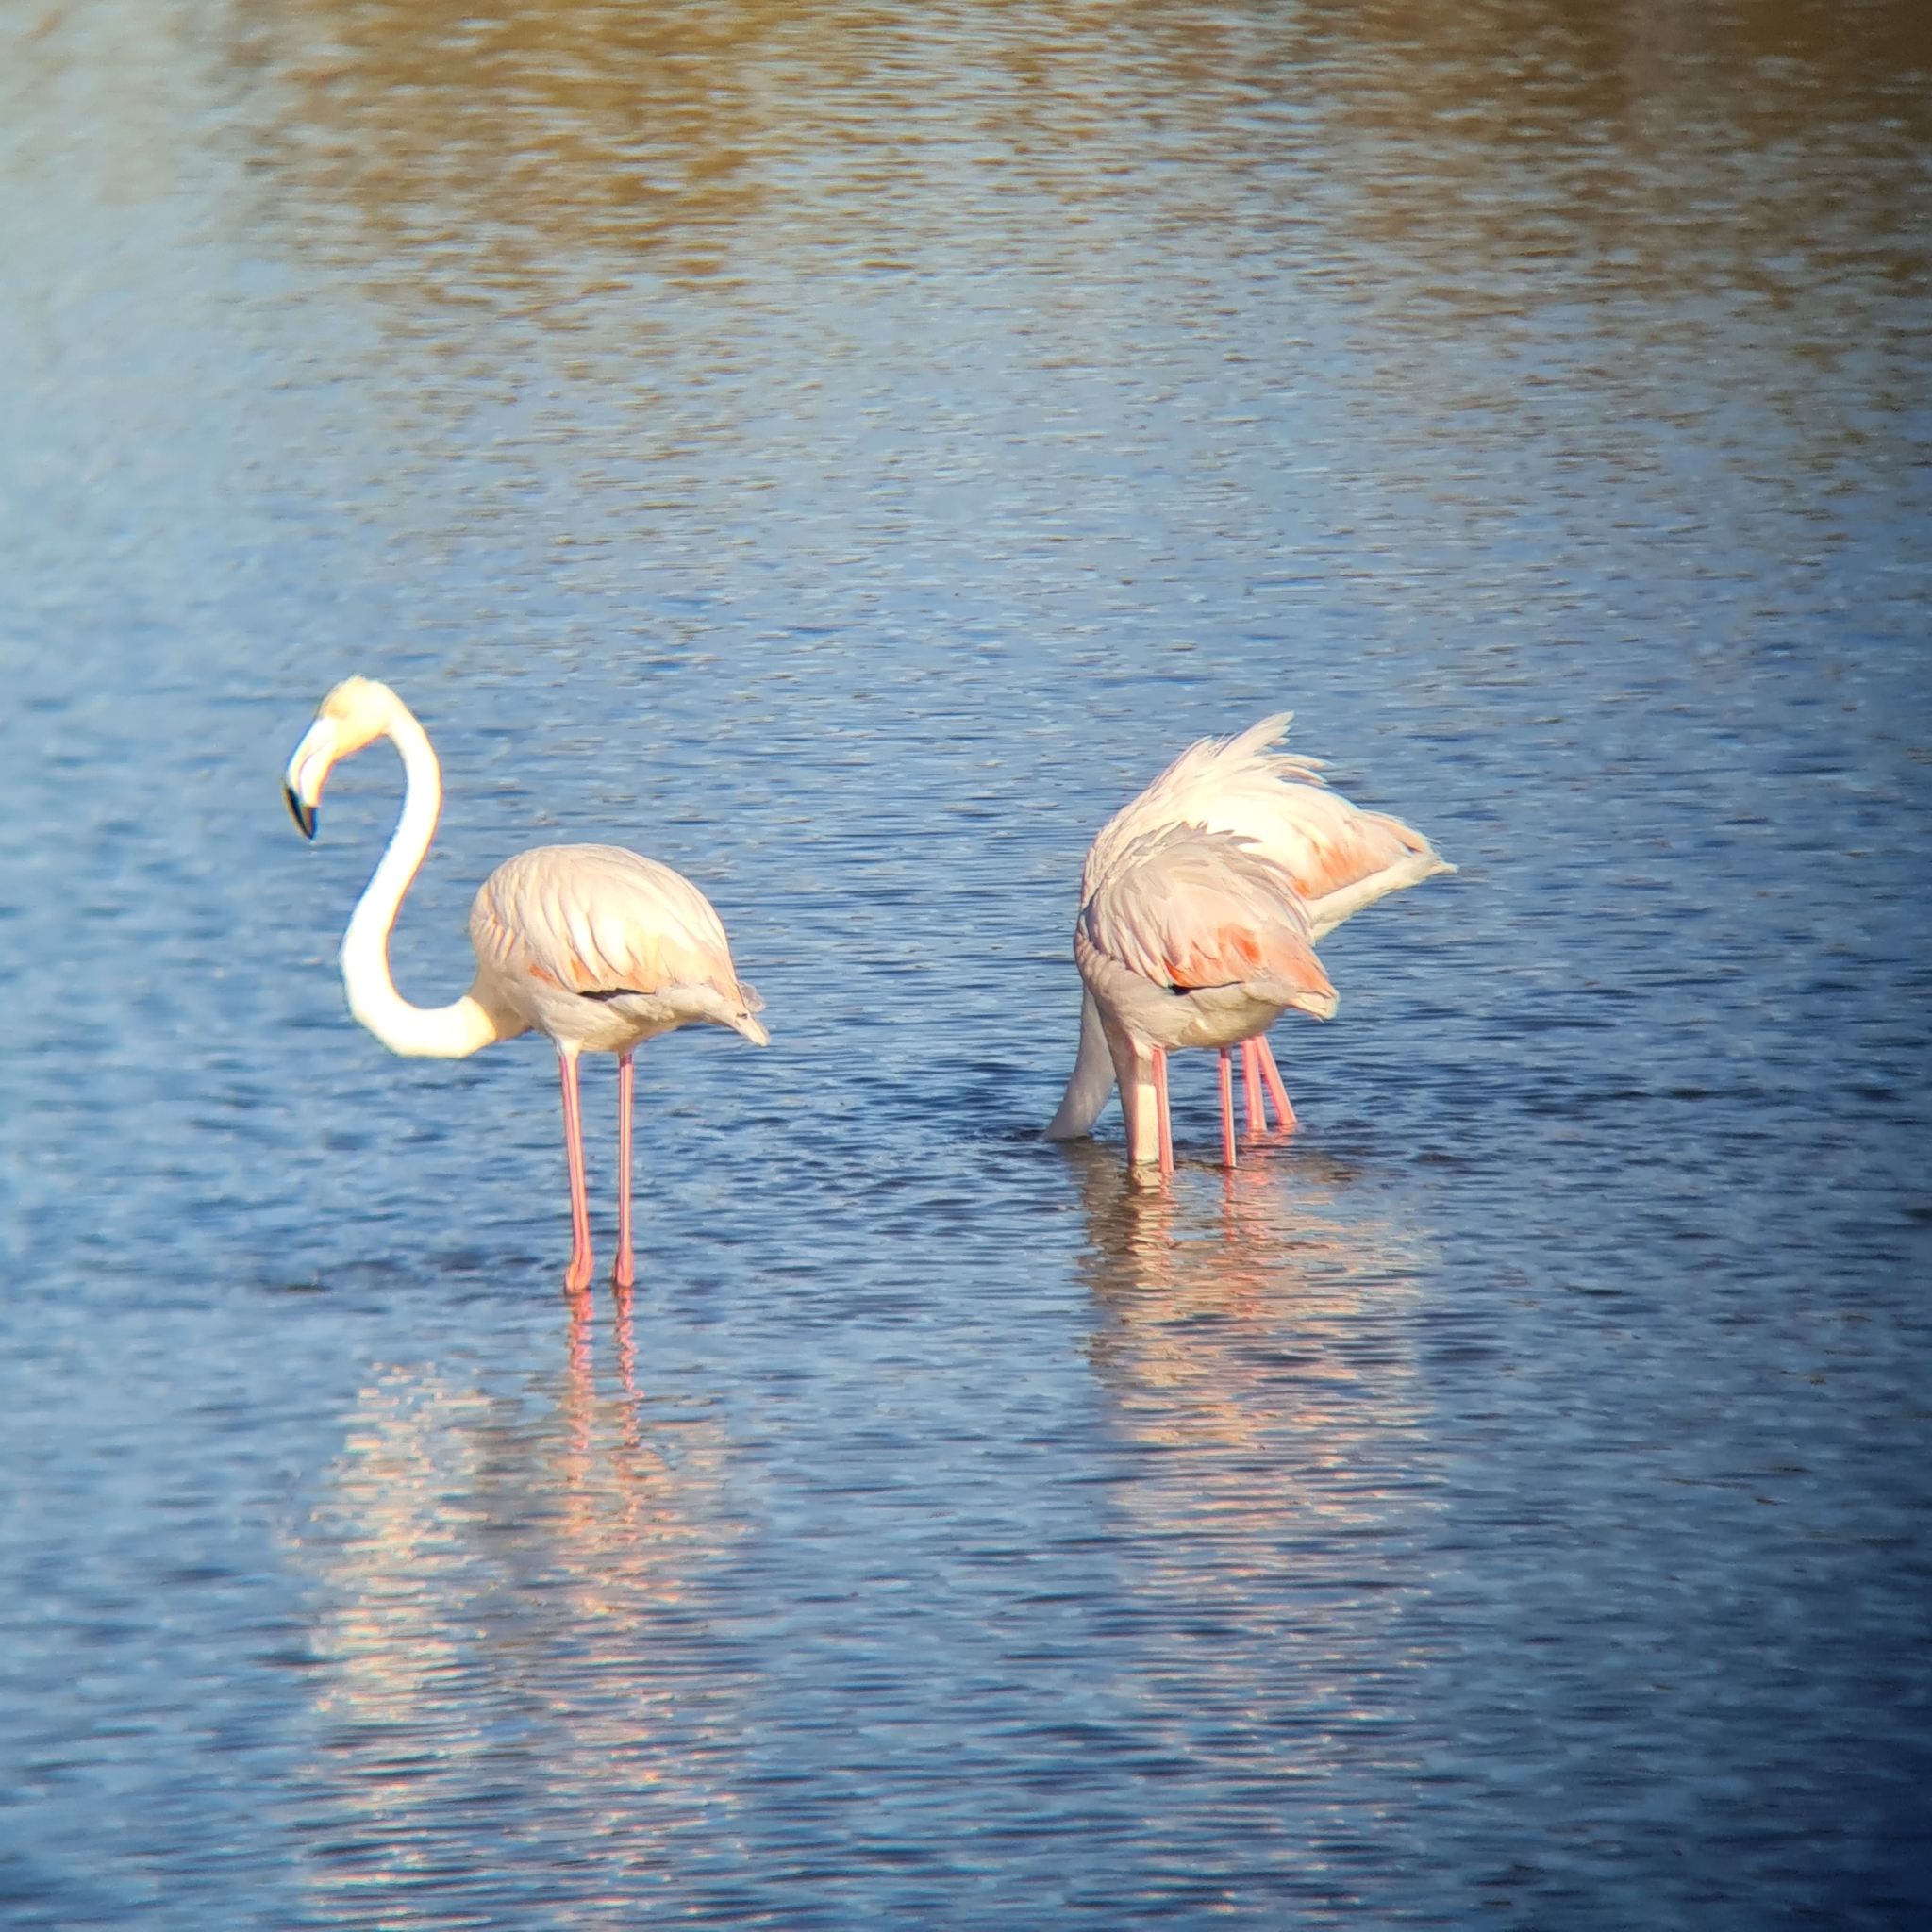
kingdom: Animalia
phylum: Chordata
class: Aves
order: Phoenicopteriformes
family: Phoenicopteridae
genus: Phoenicopterus
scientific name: Phoenicopterus roseus
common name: Greater flamingo
